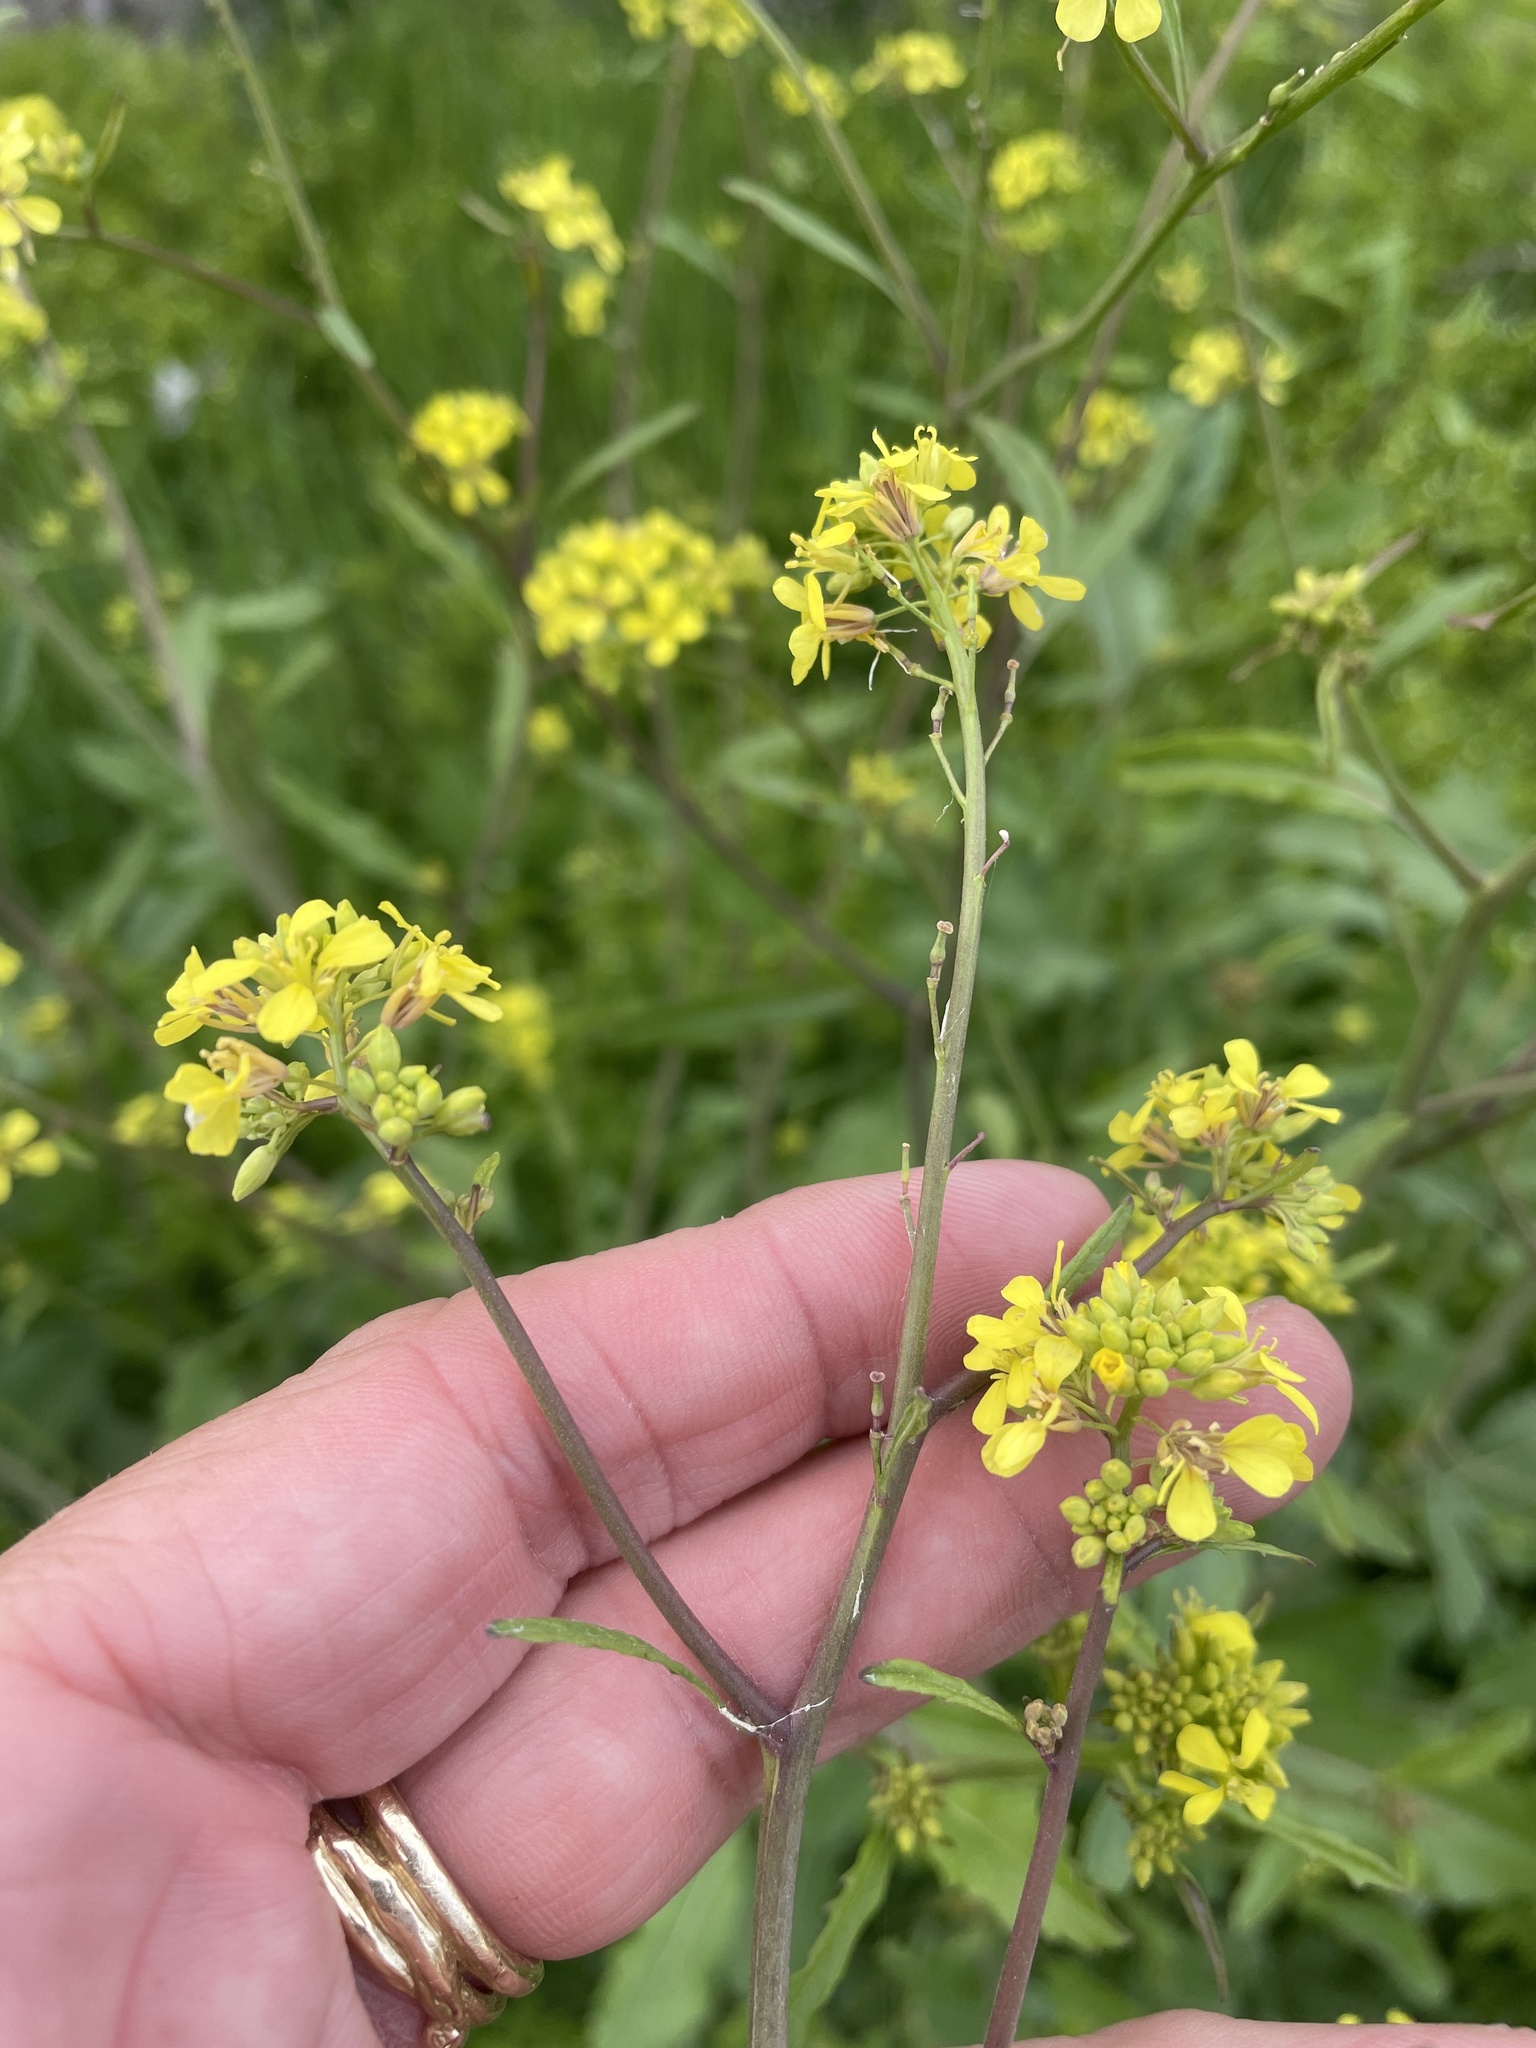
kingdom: Plantae
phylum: Tracheophyta
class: Magnoliopsida
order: Brassicales
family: Brassicaceae
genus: Rapistrum
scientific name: Rapistrum rugosum
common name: Annual bastardcabbage
